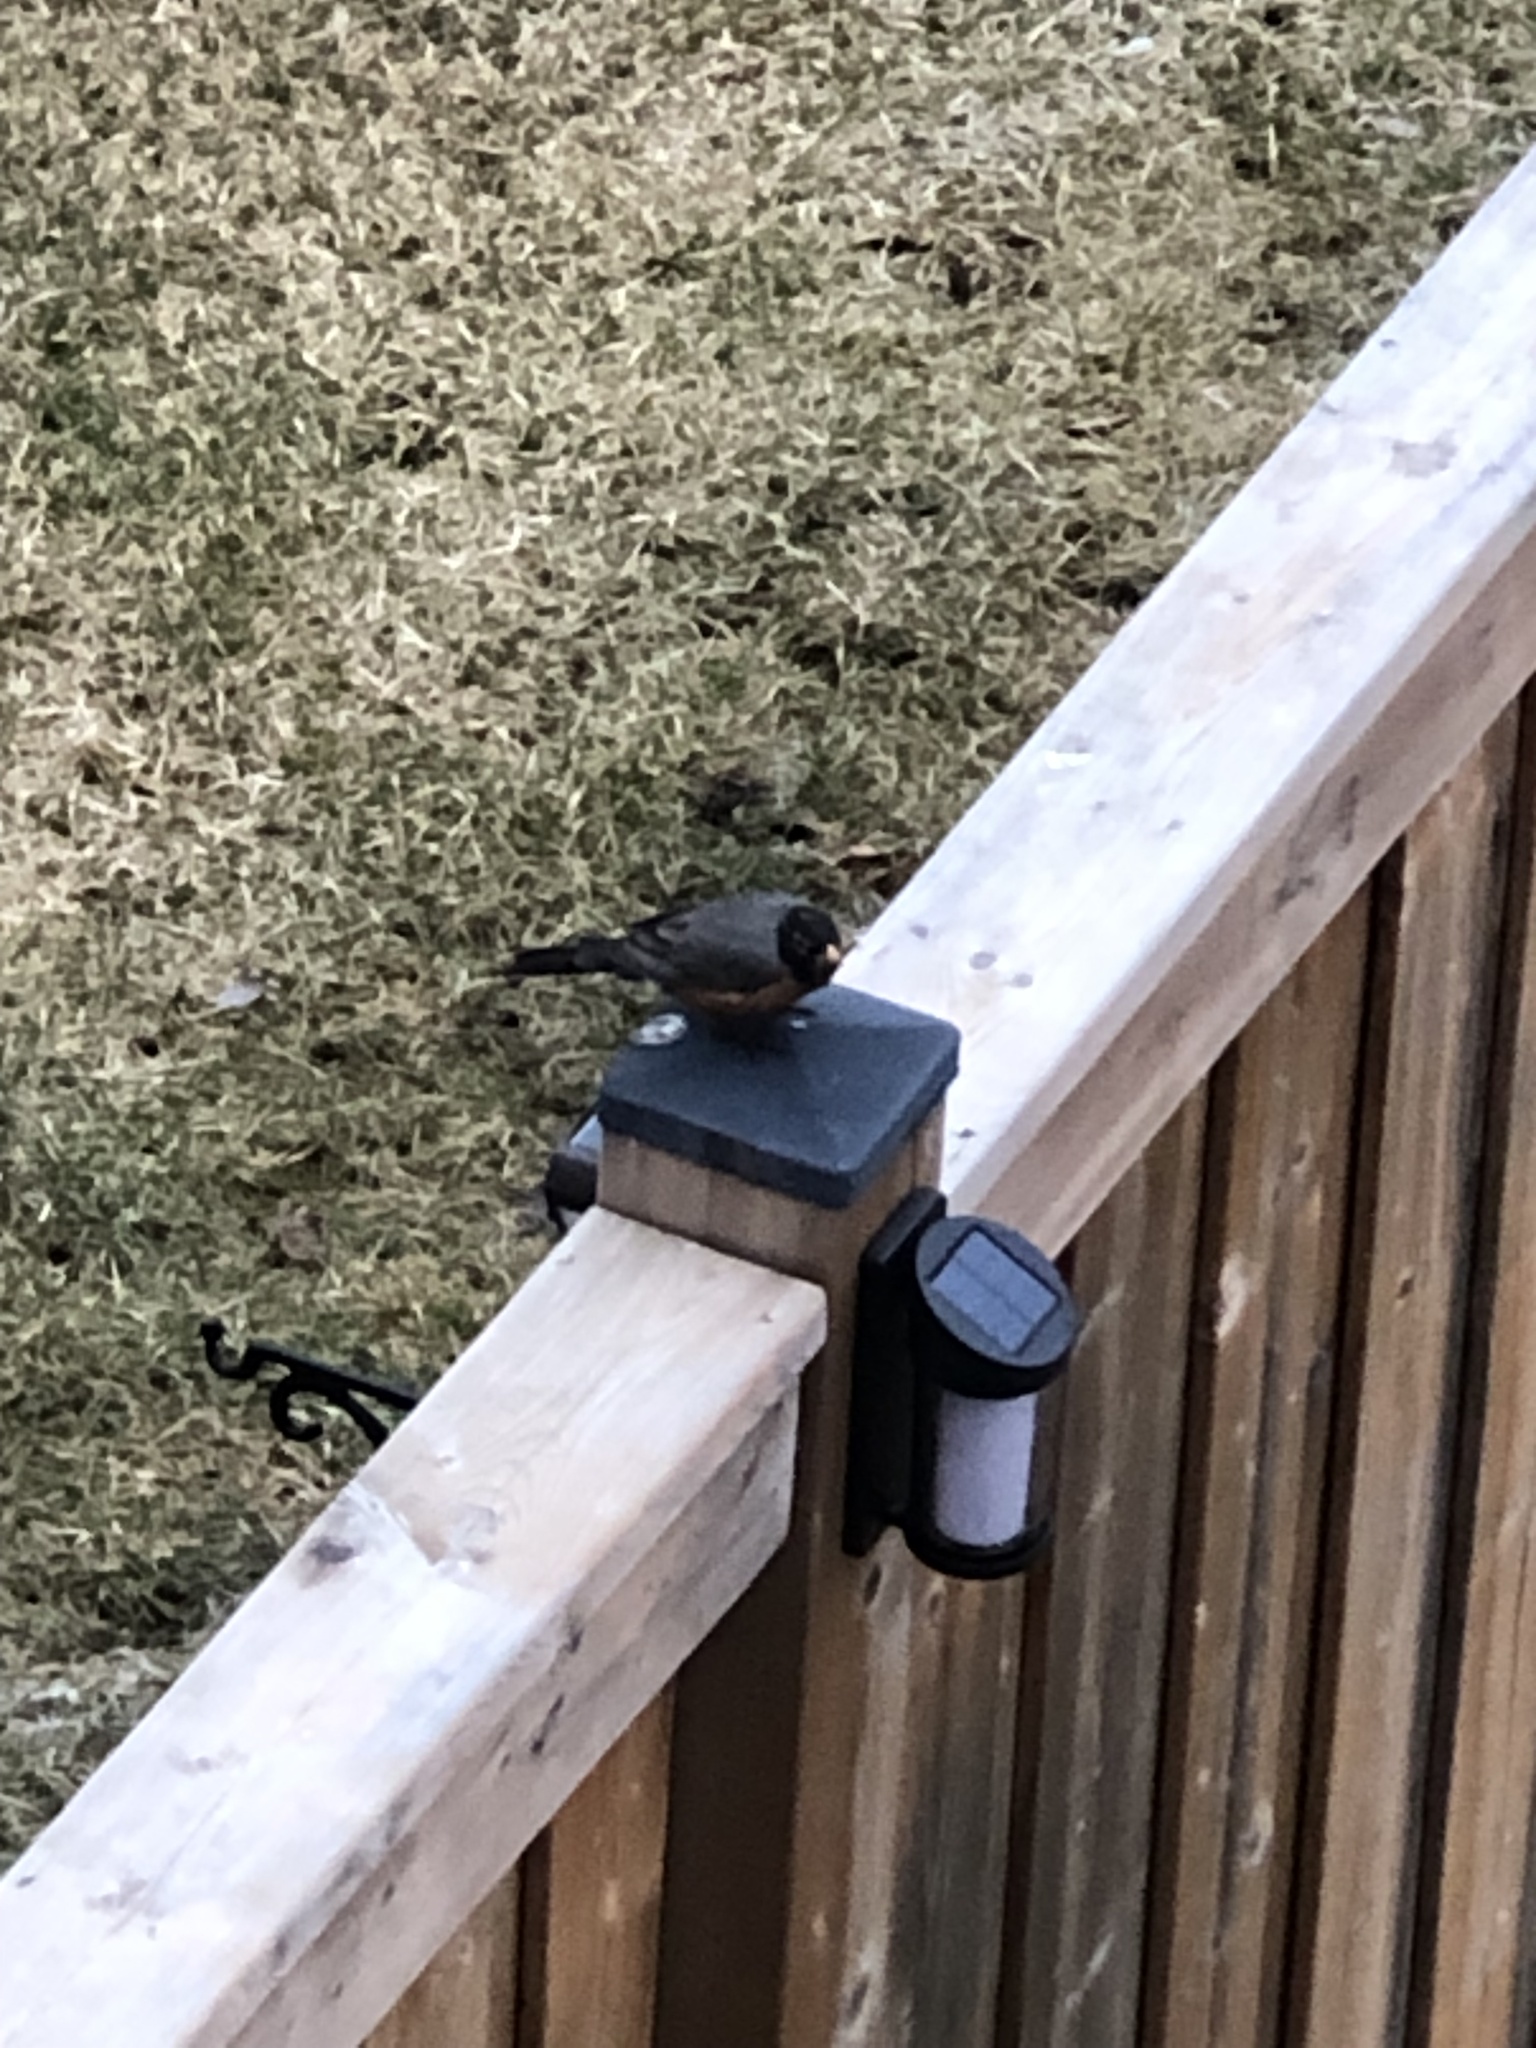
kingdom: Animalia
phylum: Chordata
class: Aves
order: Passeriformes
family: Turdidae
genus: Turdus
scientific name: Turdus migratorius
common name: American robin
